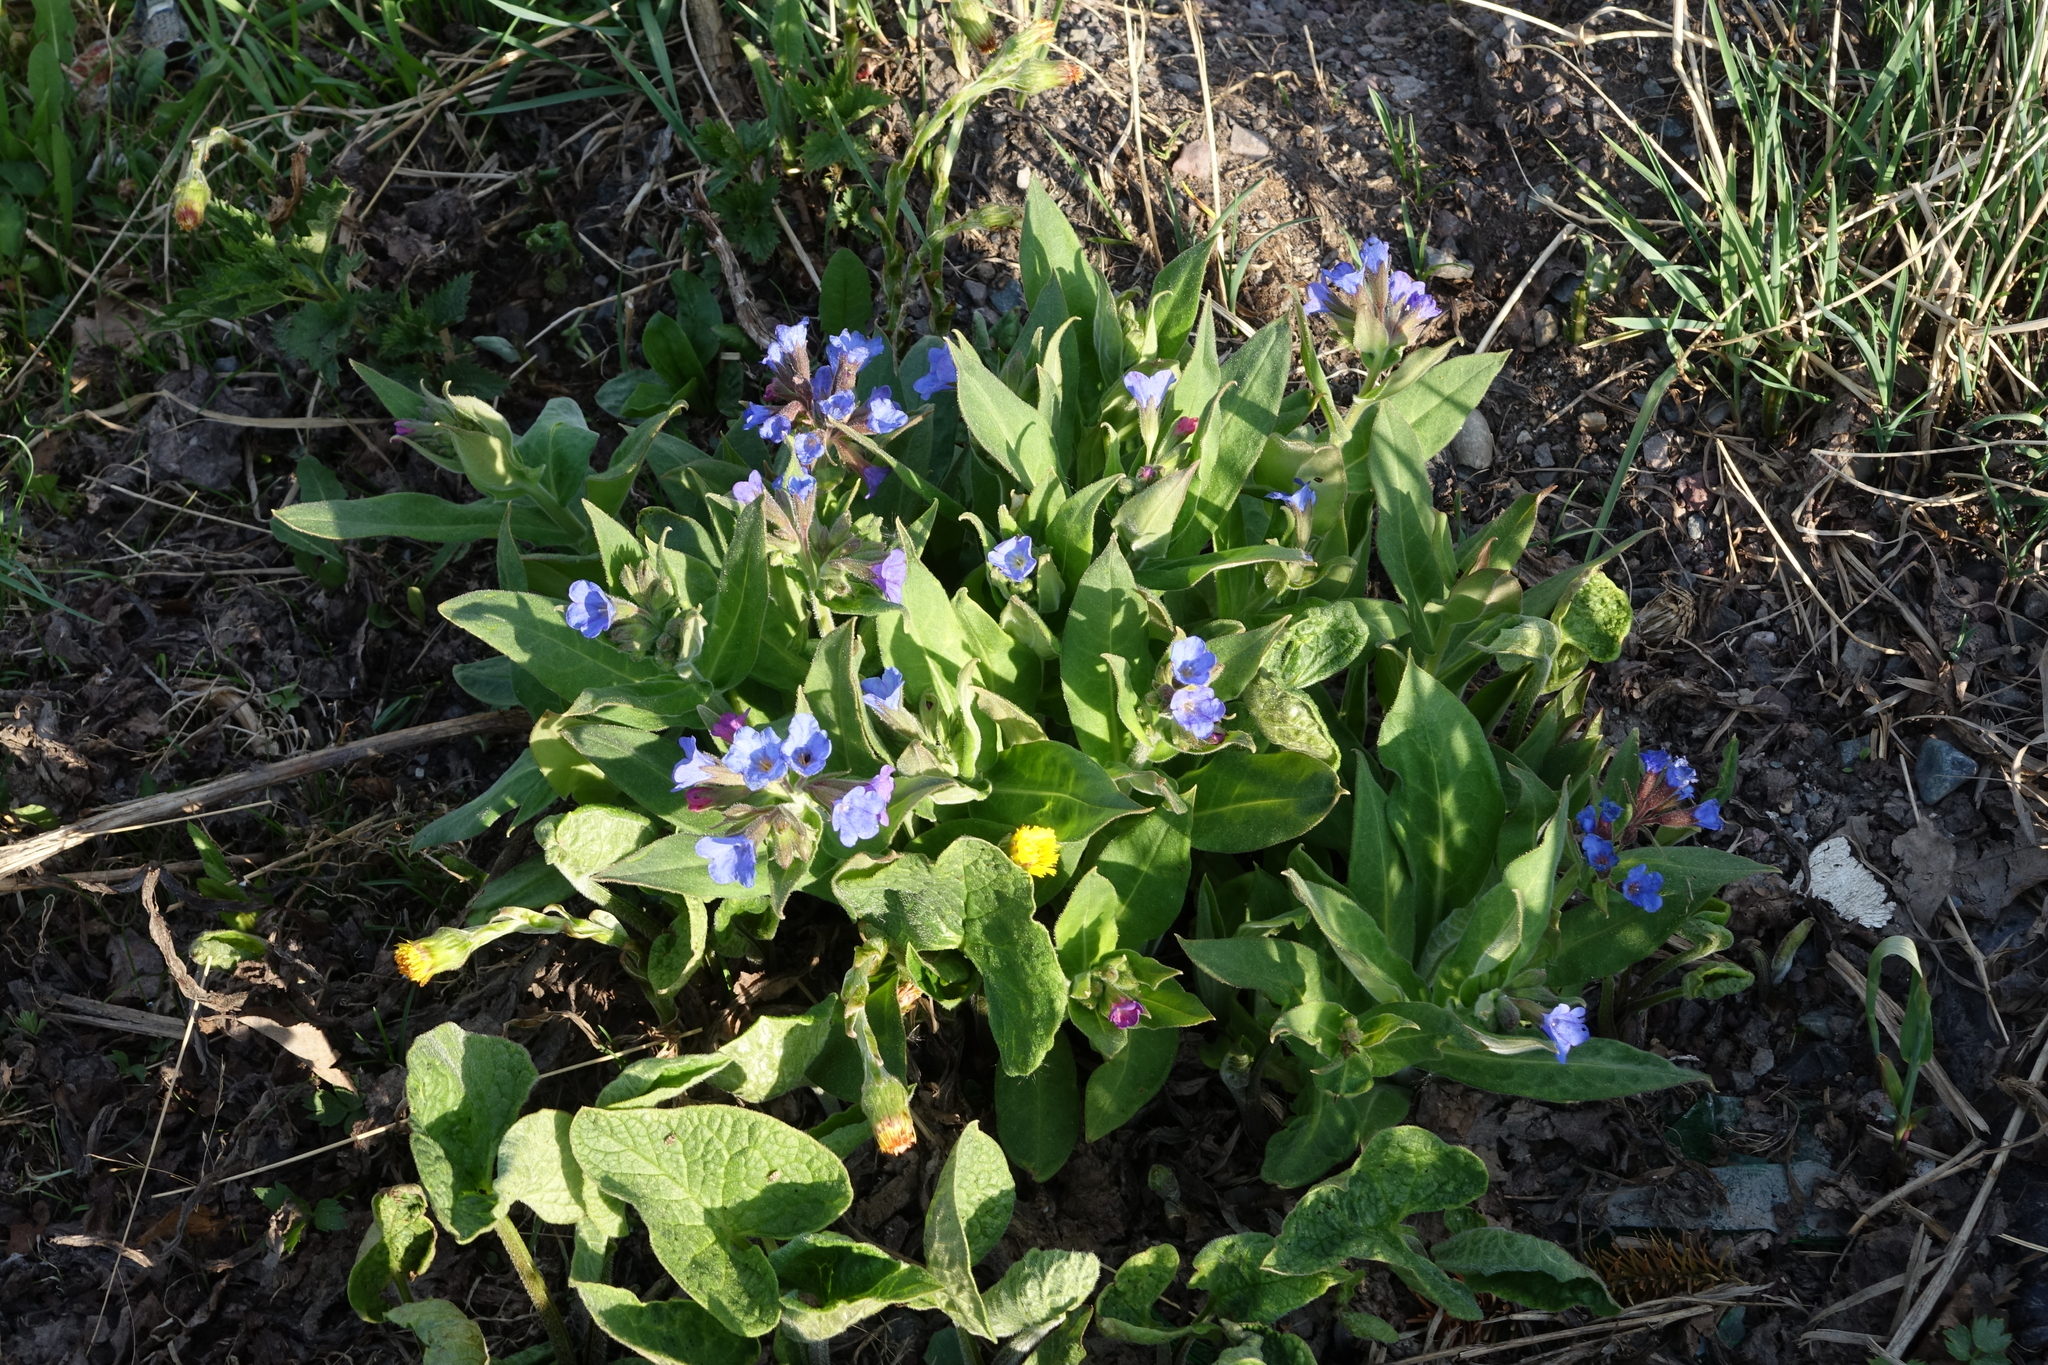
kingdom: Plantae
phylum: Tracheophyta
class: Magnoliopsida
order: Boraginales
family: Boraginaceae
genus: Pulmonaria
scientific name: Pulmonaria mollis
